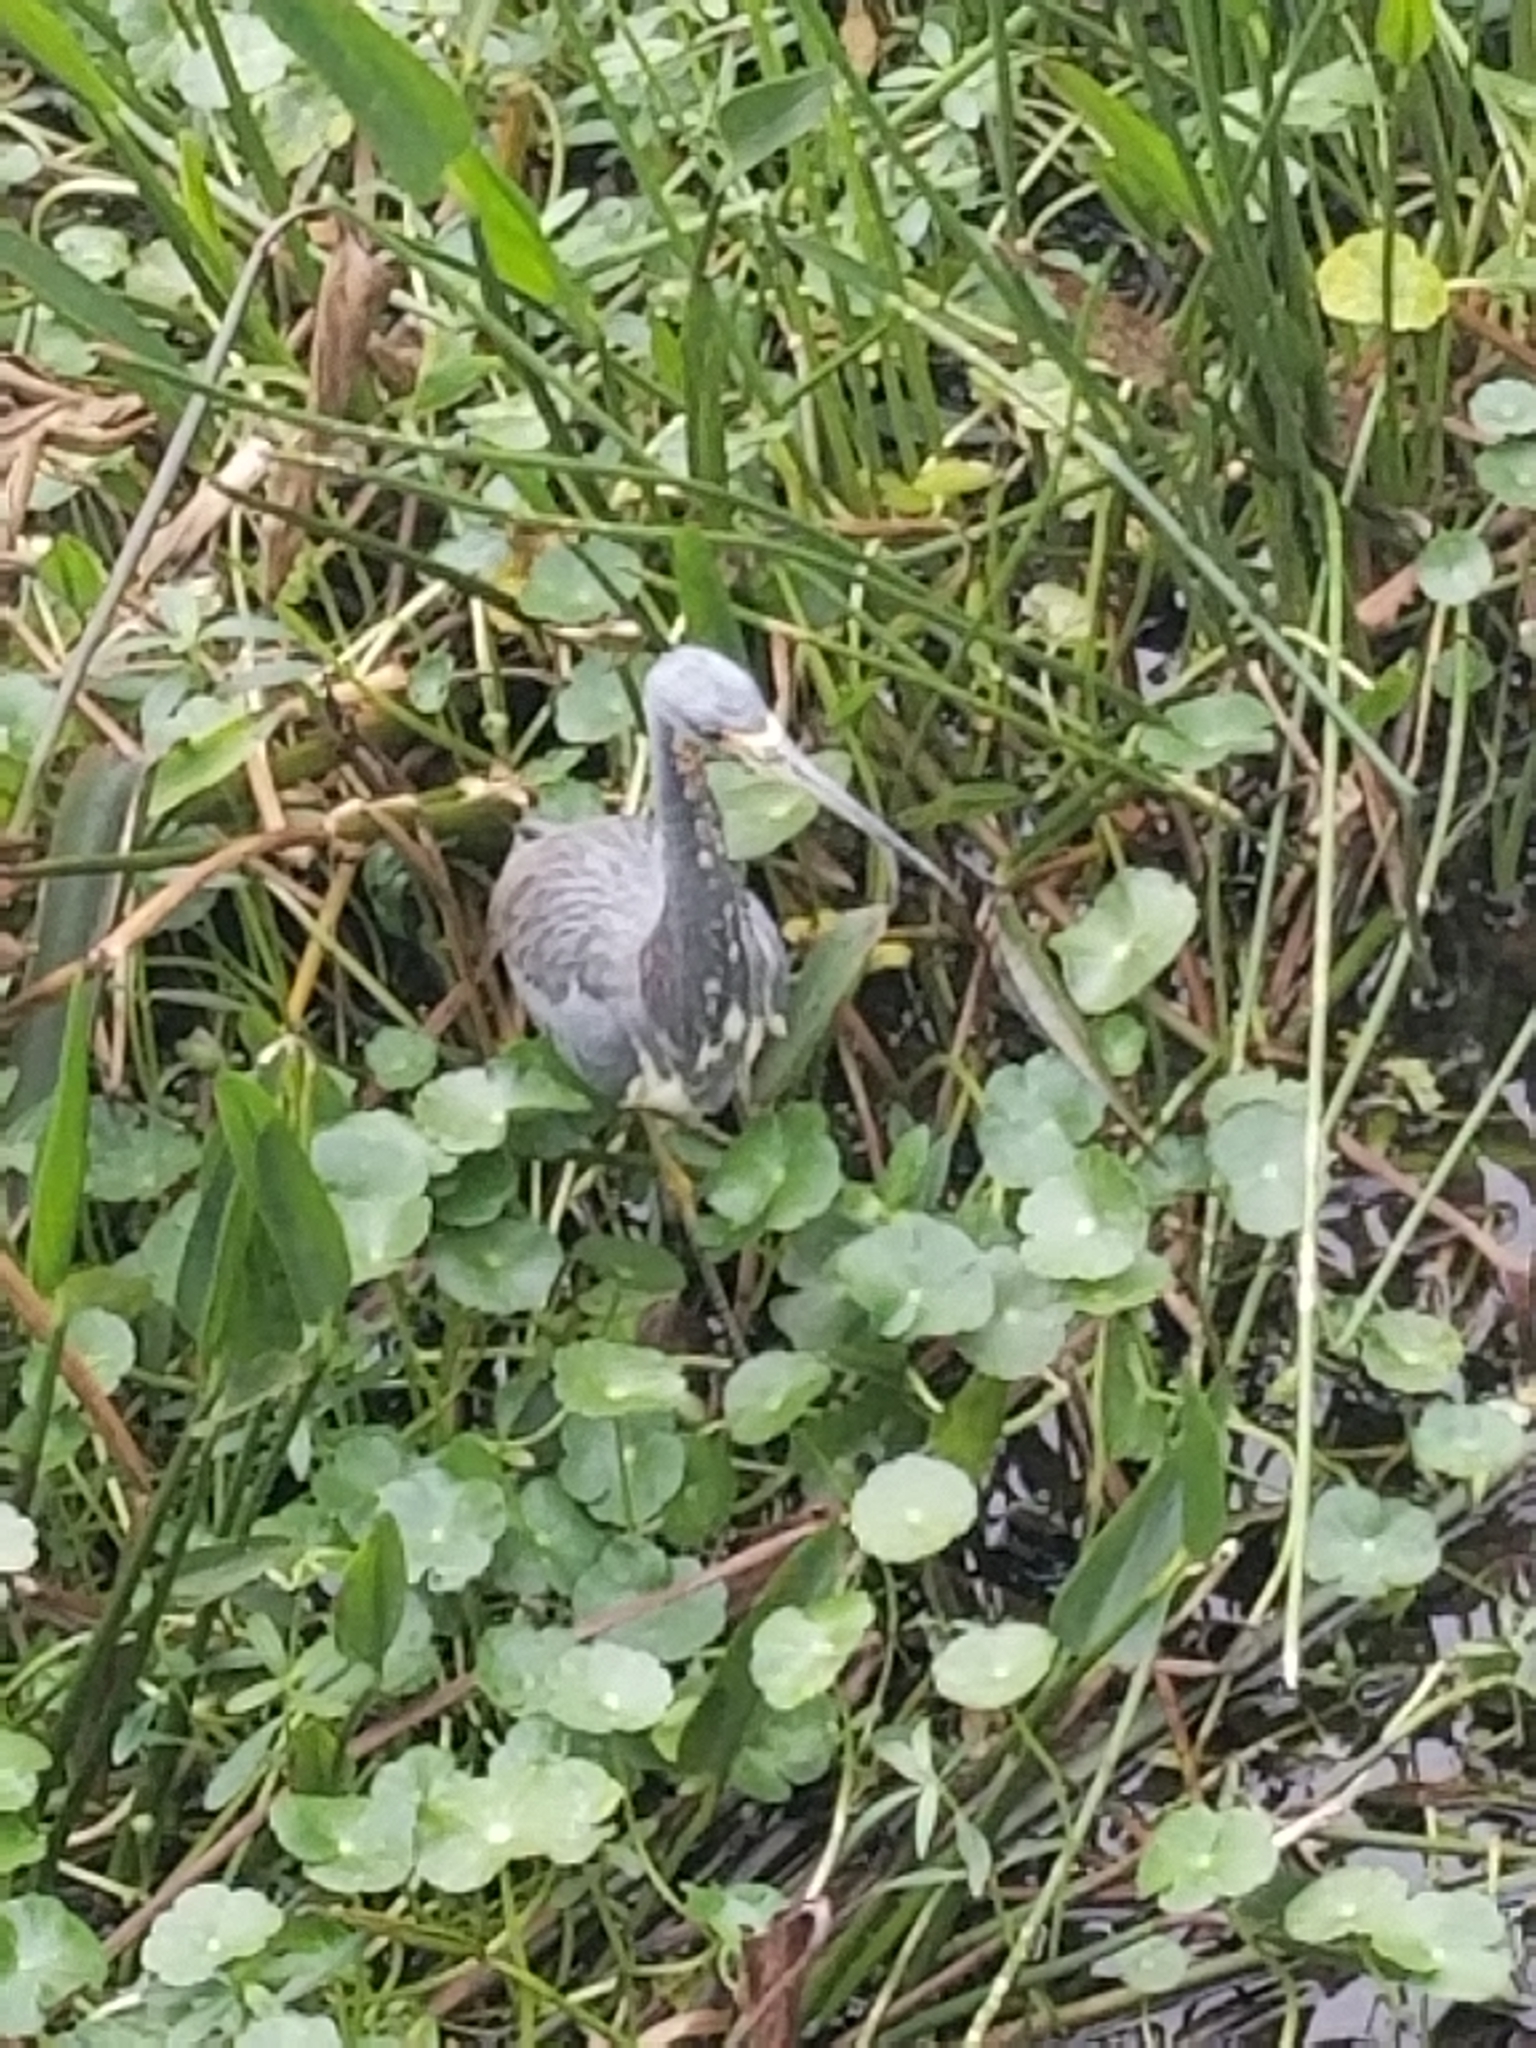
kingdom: Animalia
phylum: Chordata
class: Aves
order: Pelecaniformes
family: Ardeidae
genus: Egretta
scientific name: Egretta tricolor
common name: Tricolored heron
